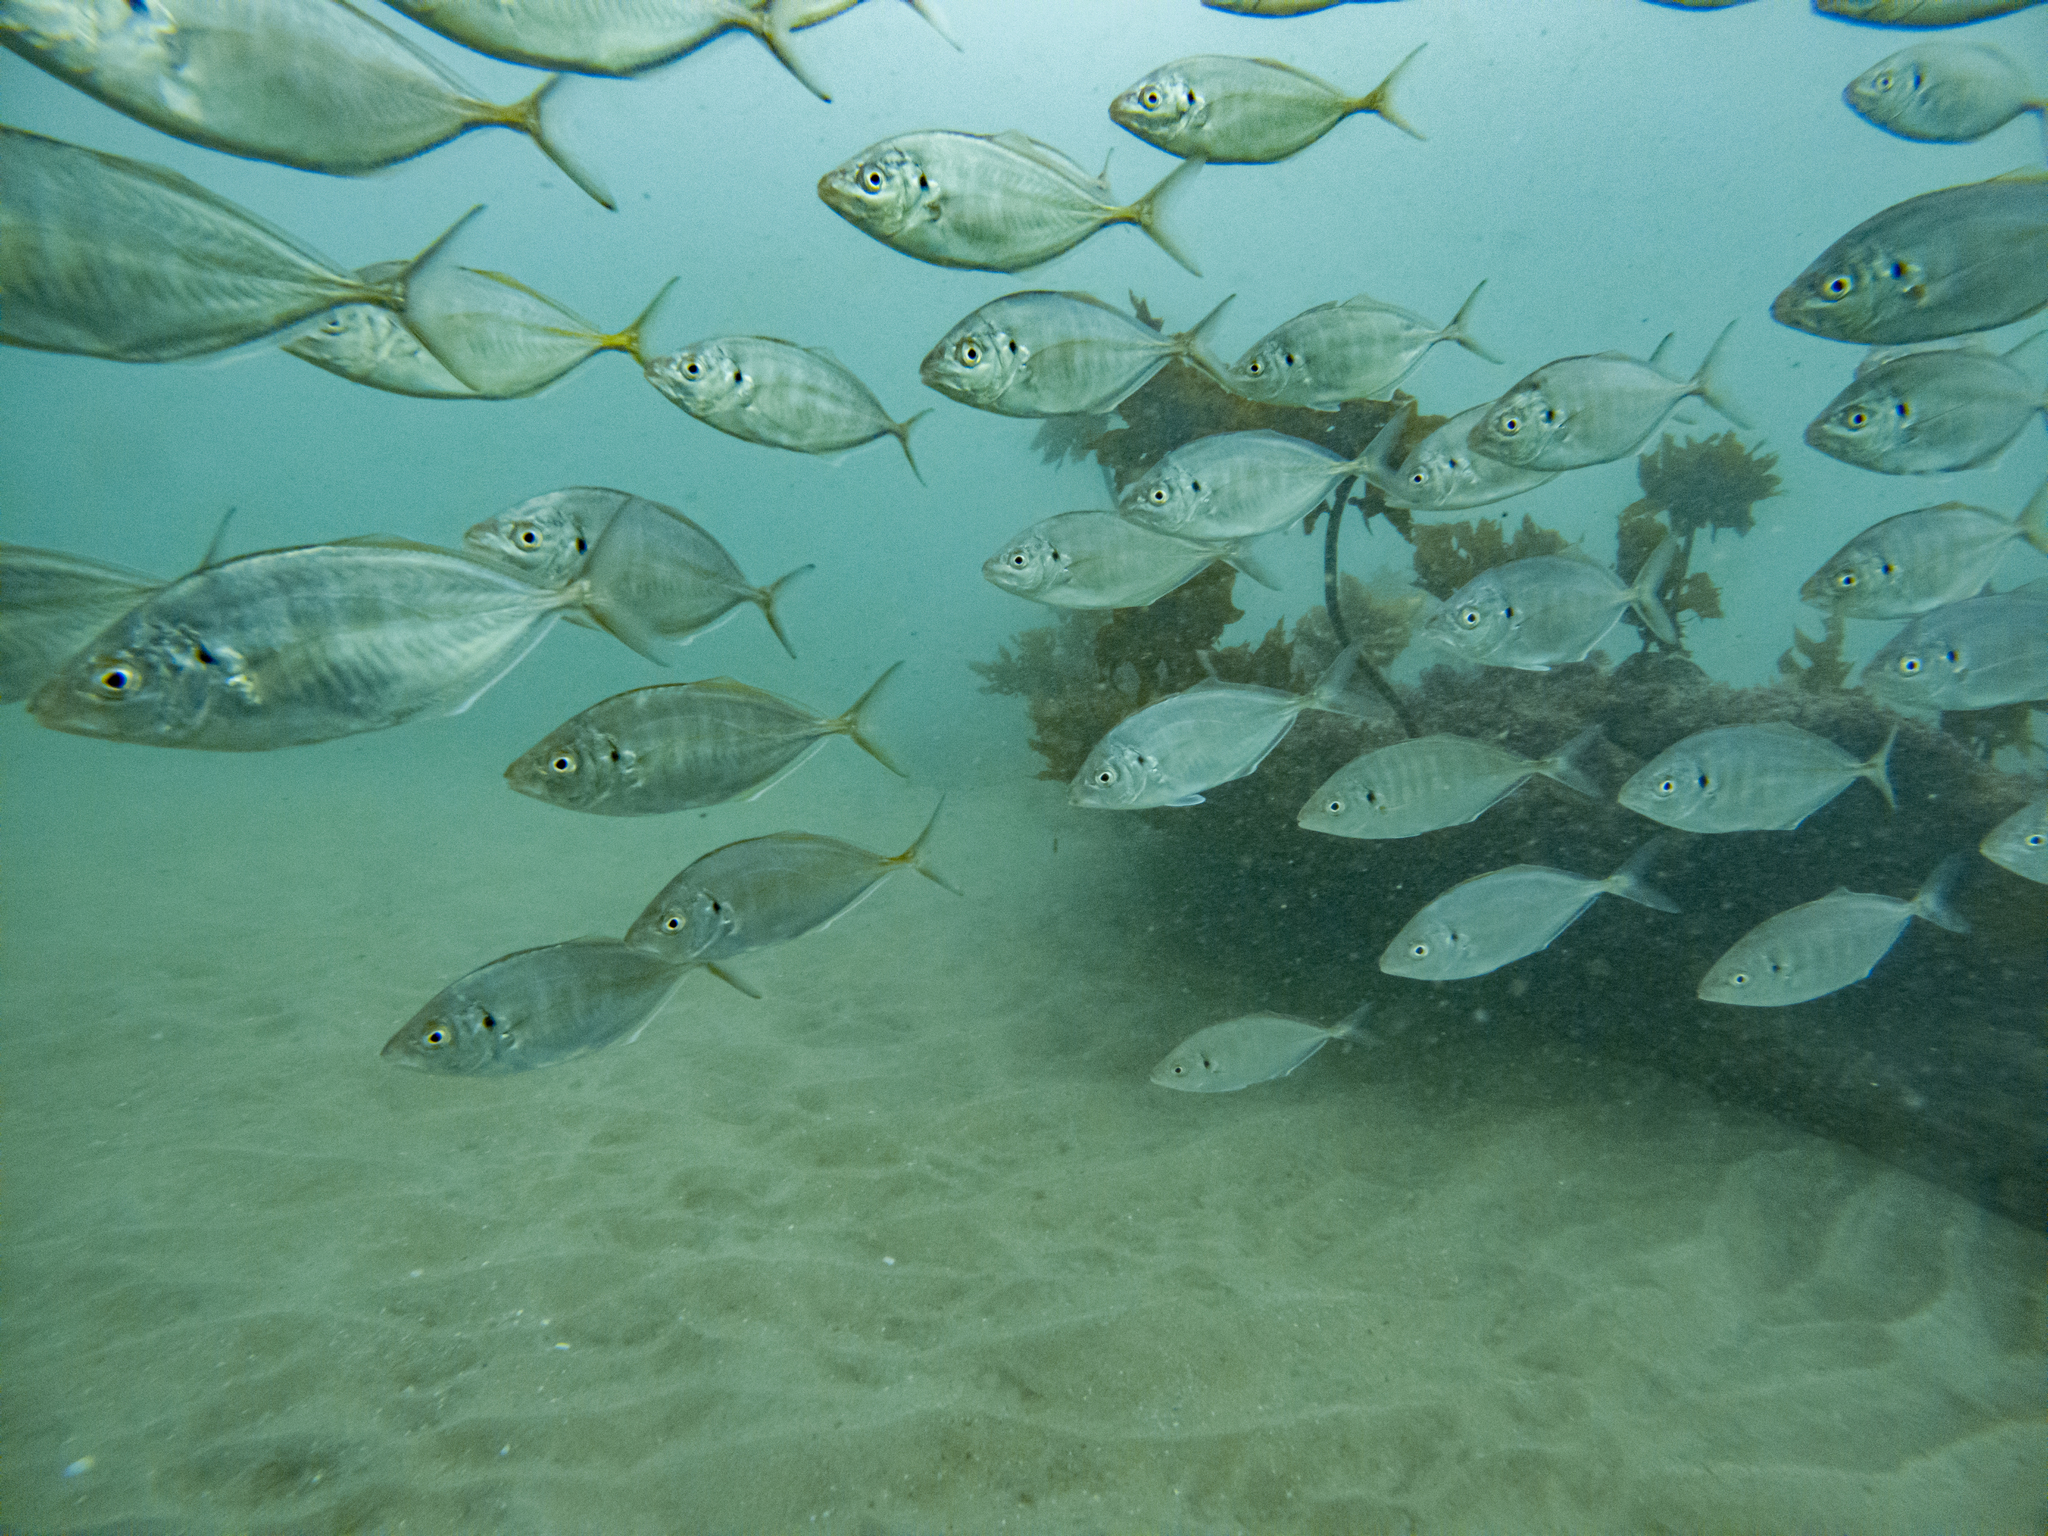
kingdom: Animalia
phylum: Chordata
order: Perciformes
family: Carangidae
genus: Pseudocaranx
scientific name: Pseudocaranx dentex
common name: White trevally
